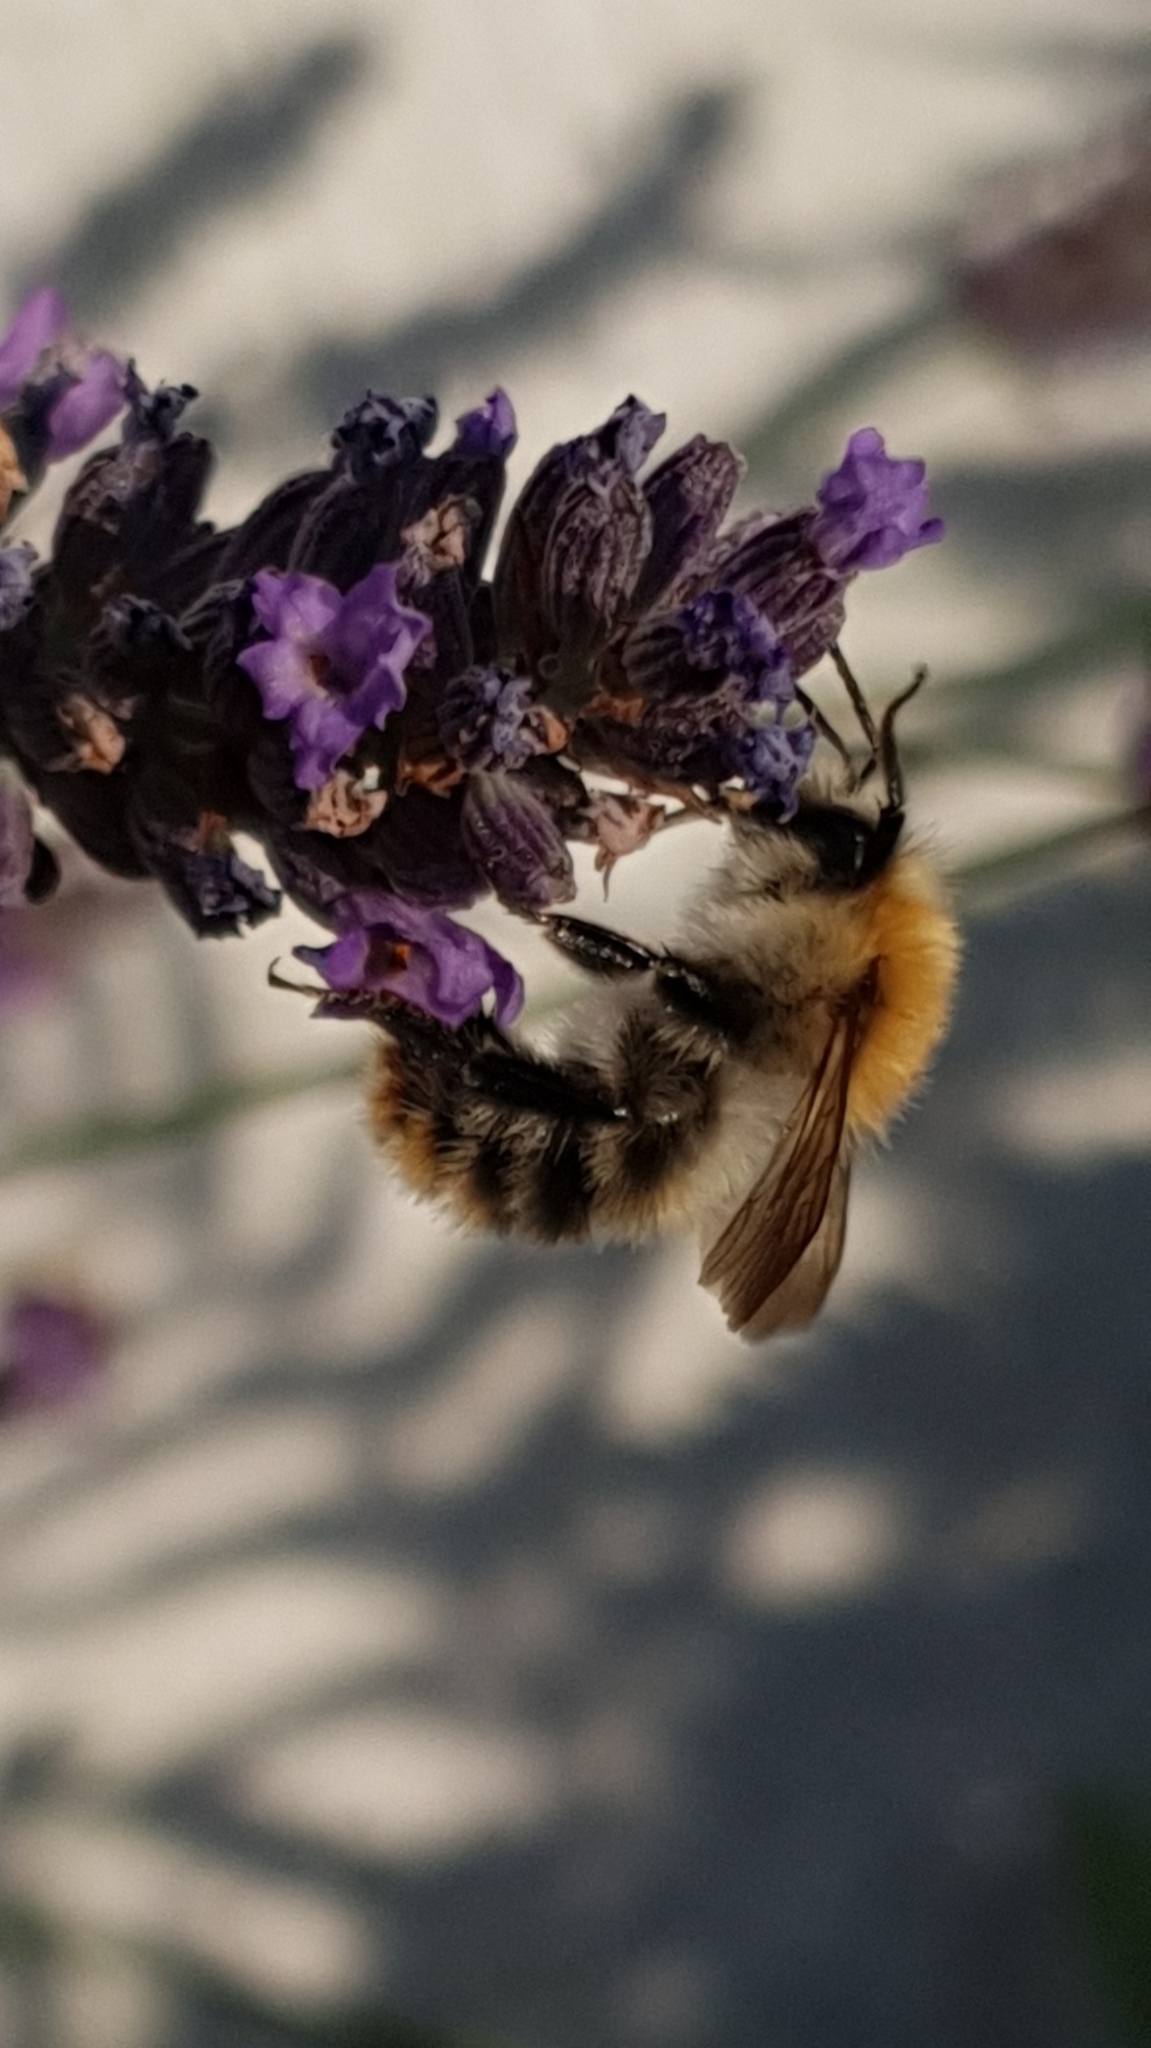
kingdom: Animalia
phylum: Arthropoda
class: Insecta
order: Hymenoptera
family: Apidae
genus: Bombus
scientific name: Bombus pascuorum
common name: Common carder bee
